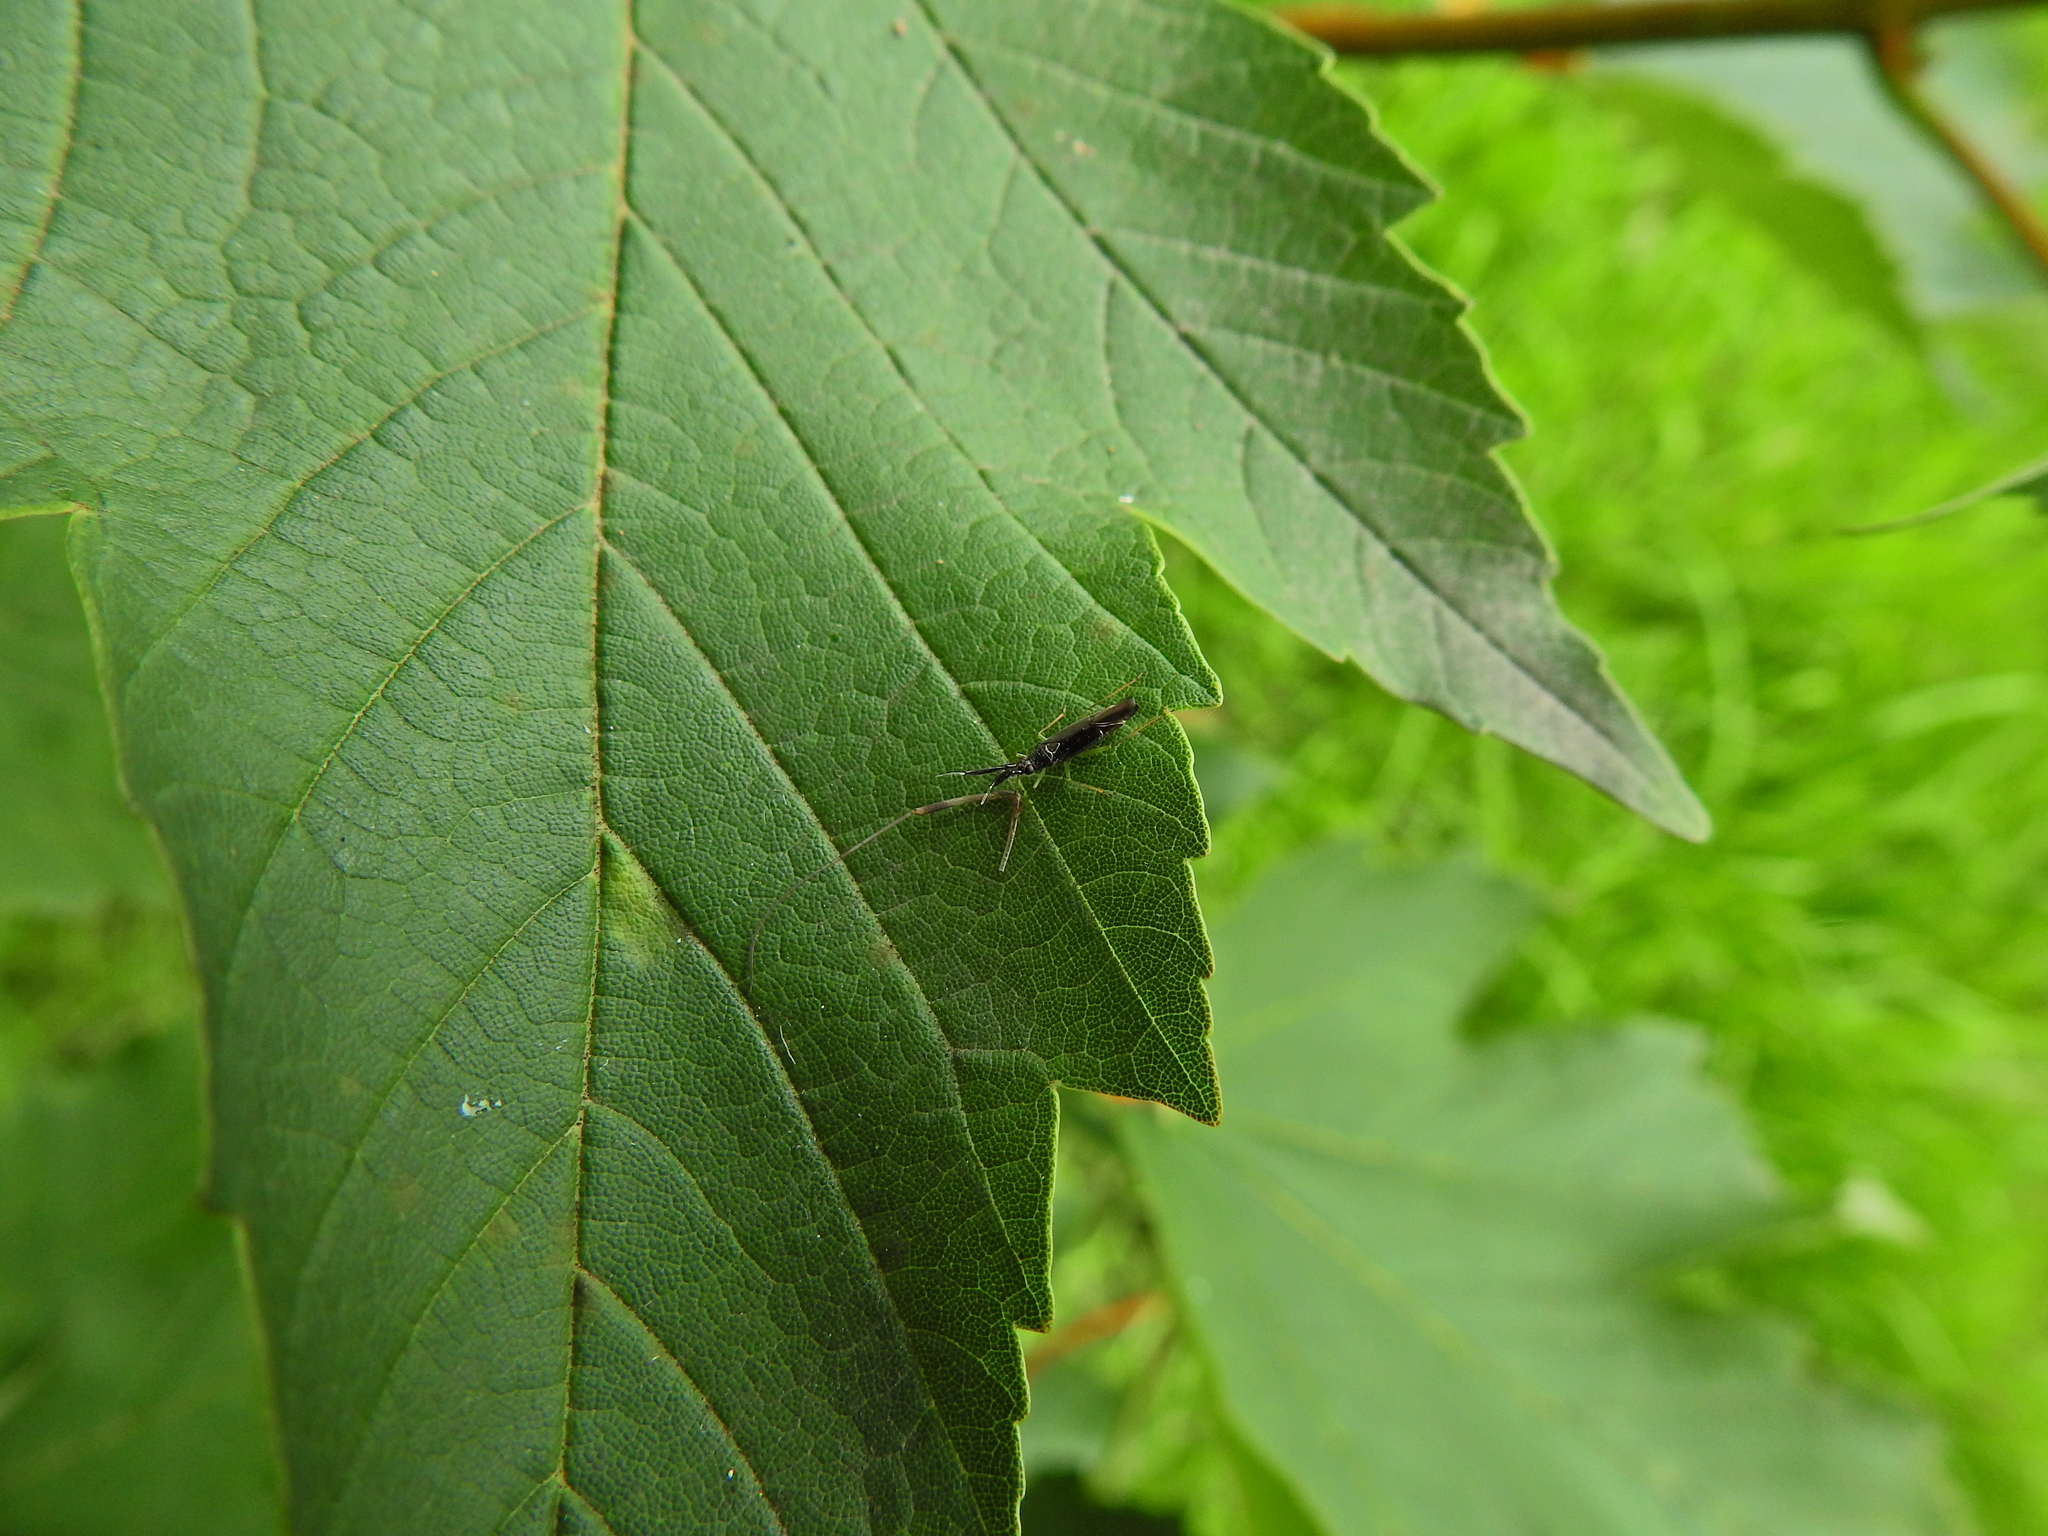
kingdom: Animalia
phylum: Arthropoda
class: Insecta
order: Hemiptera
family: Miridae
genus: Heterotoma
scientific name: Heterotoma planicornis
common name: Plant bug
